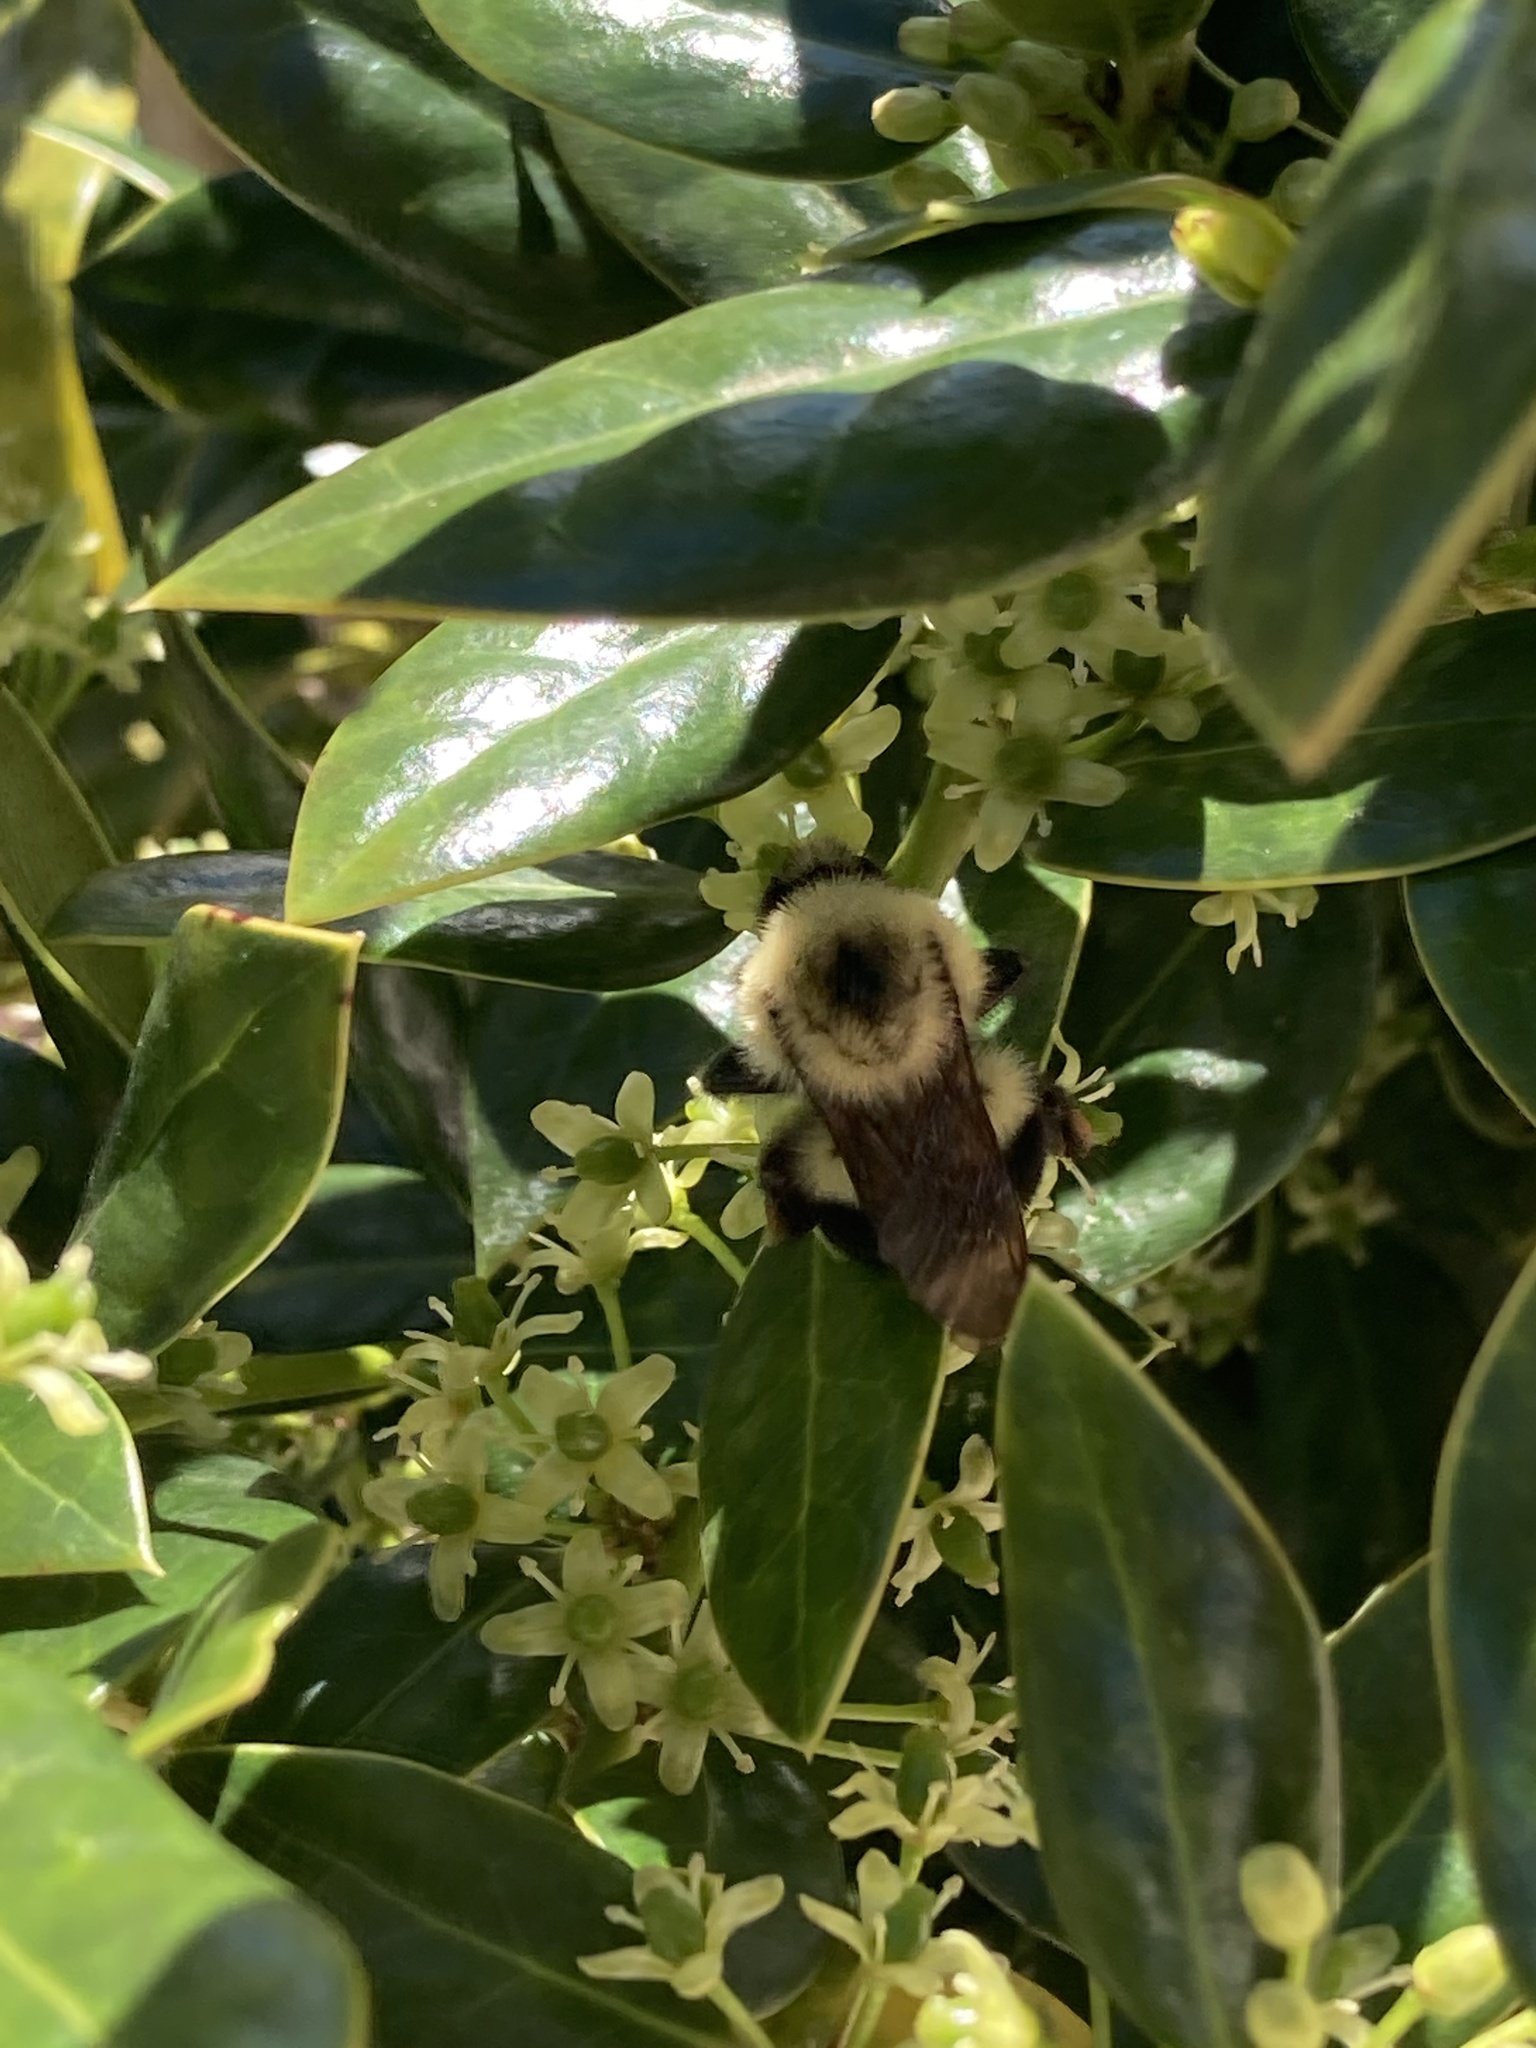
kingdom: Animalia
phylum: Arthropoda
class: Insecta
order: Hymenoptera
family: Apidae
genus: Bombus
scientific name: Bombus bimaculatus
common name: Two-spotted bumble bee
